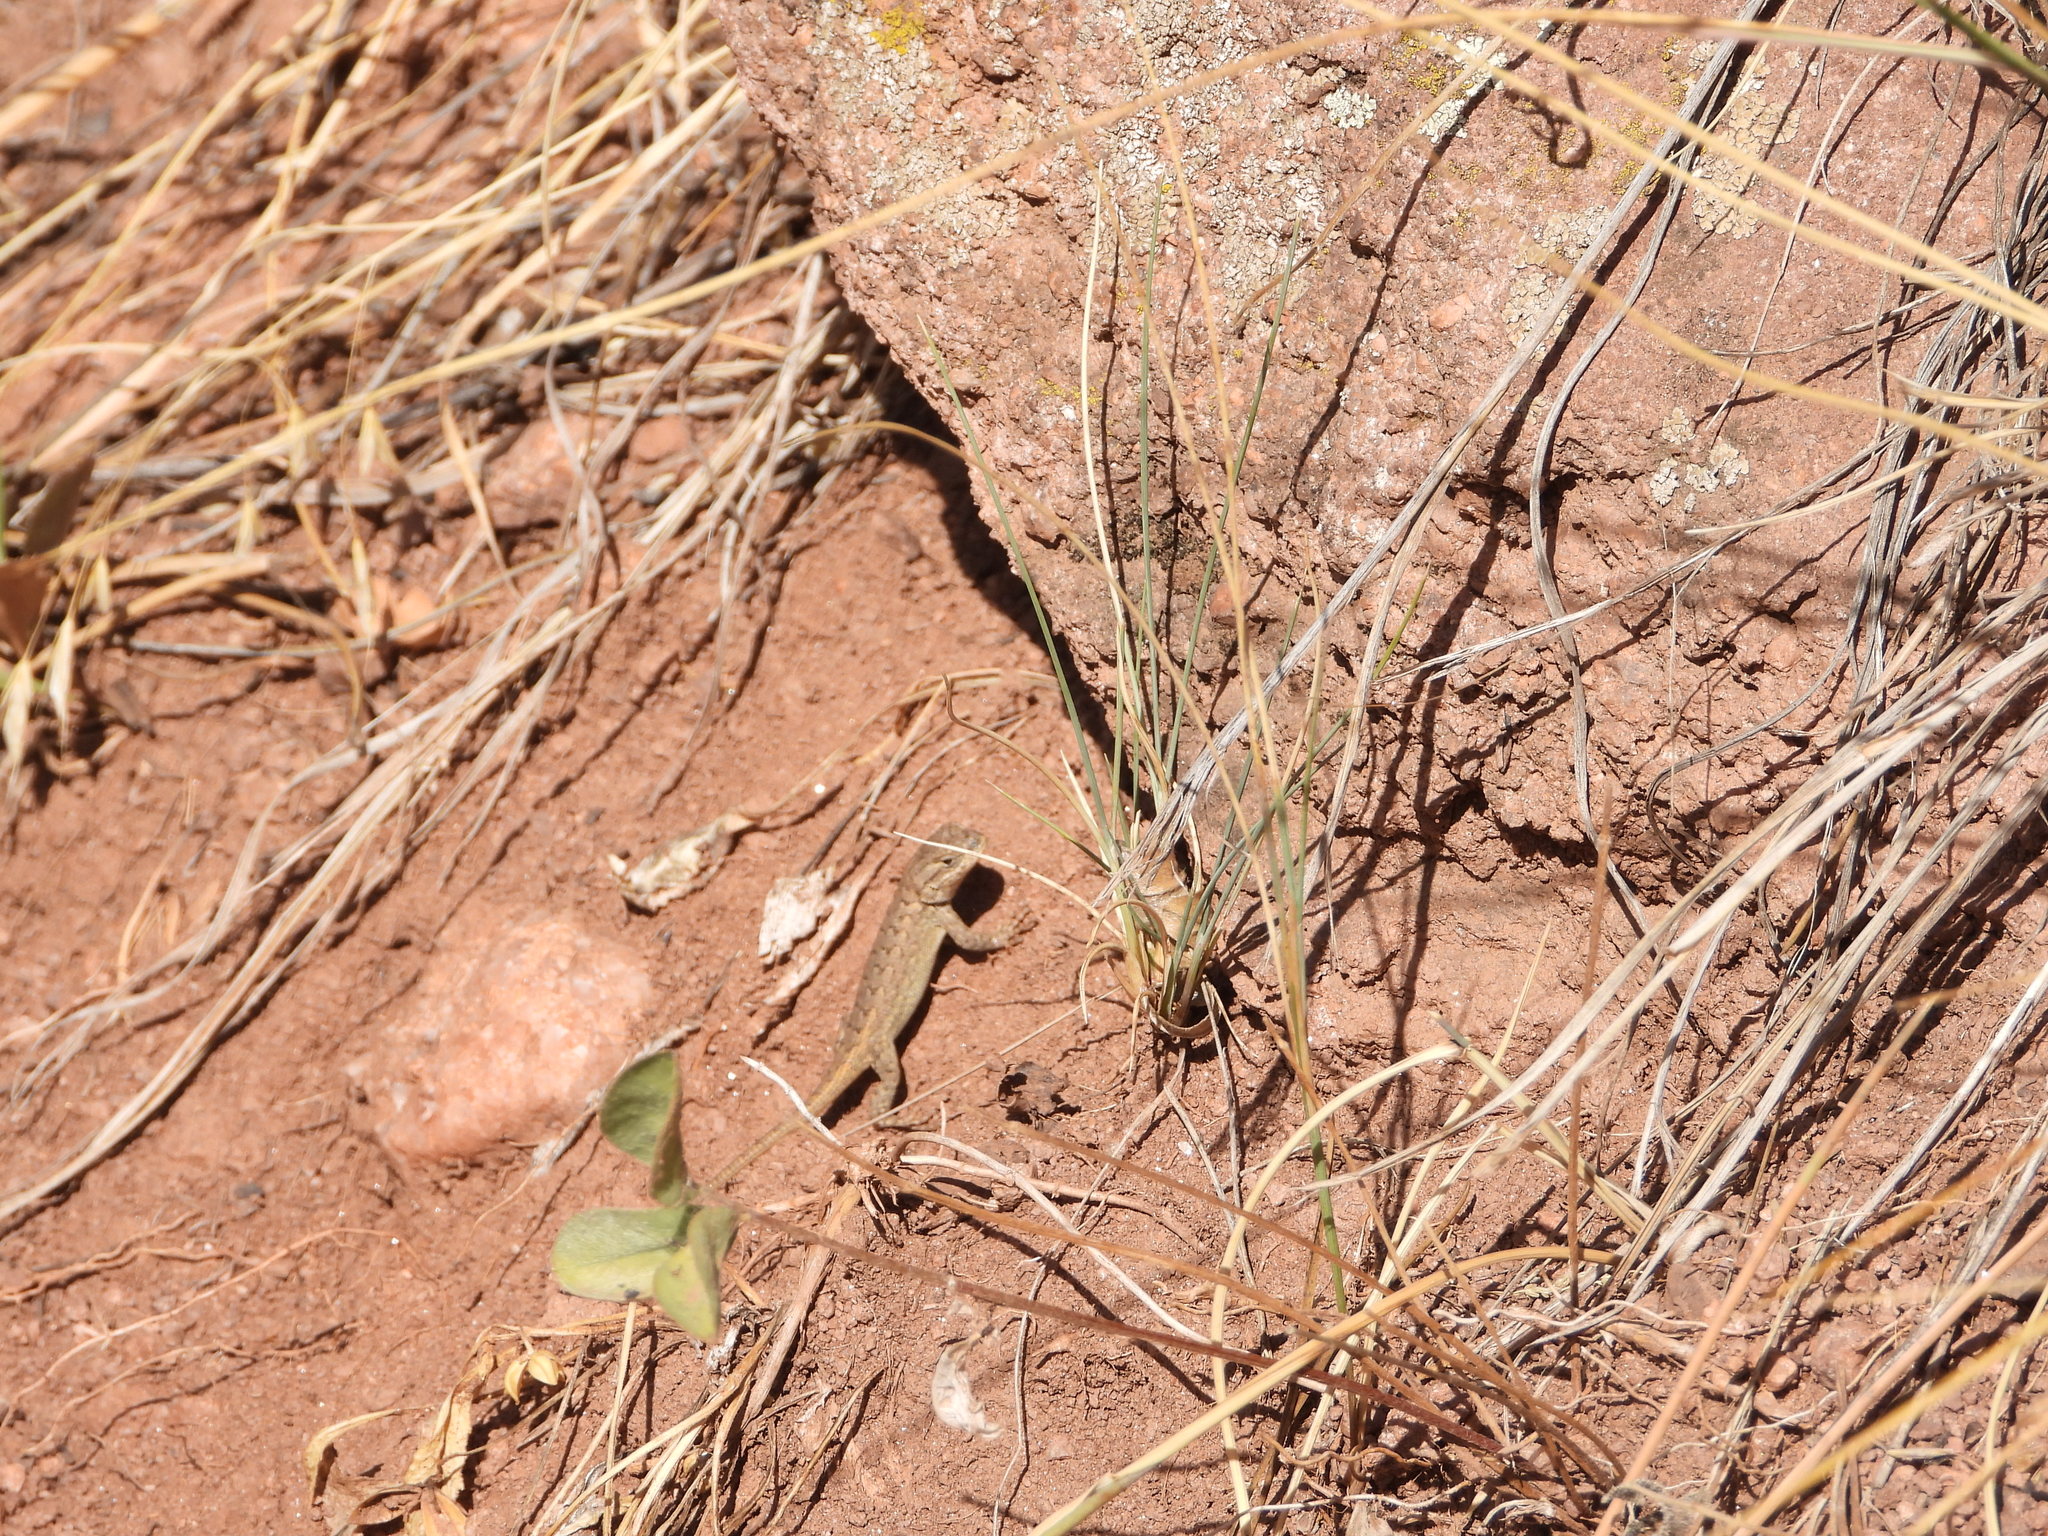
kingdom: Animalia
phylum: Chordata
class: Squamata
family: Phrynosomatidae
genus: Sceloporus
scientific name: Sceloporus consobrinus
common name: Southern prairie lizard
